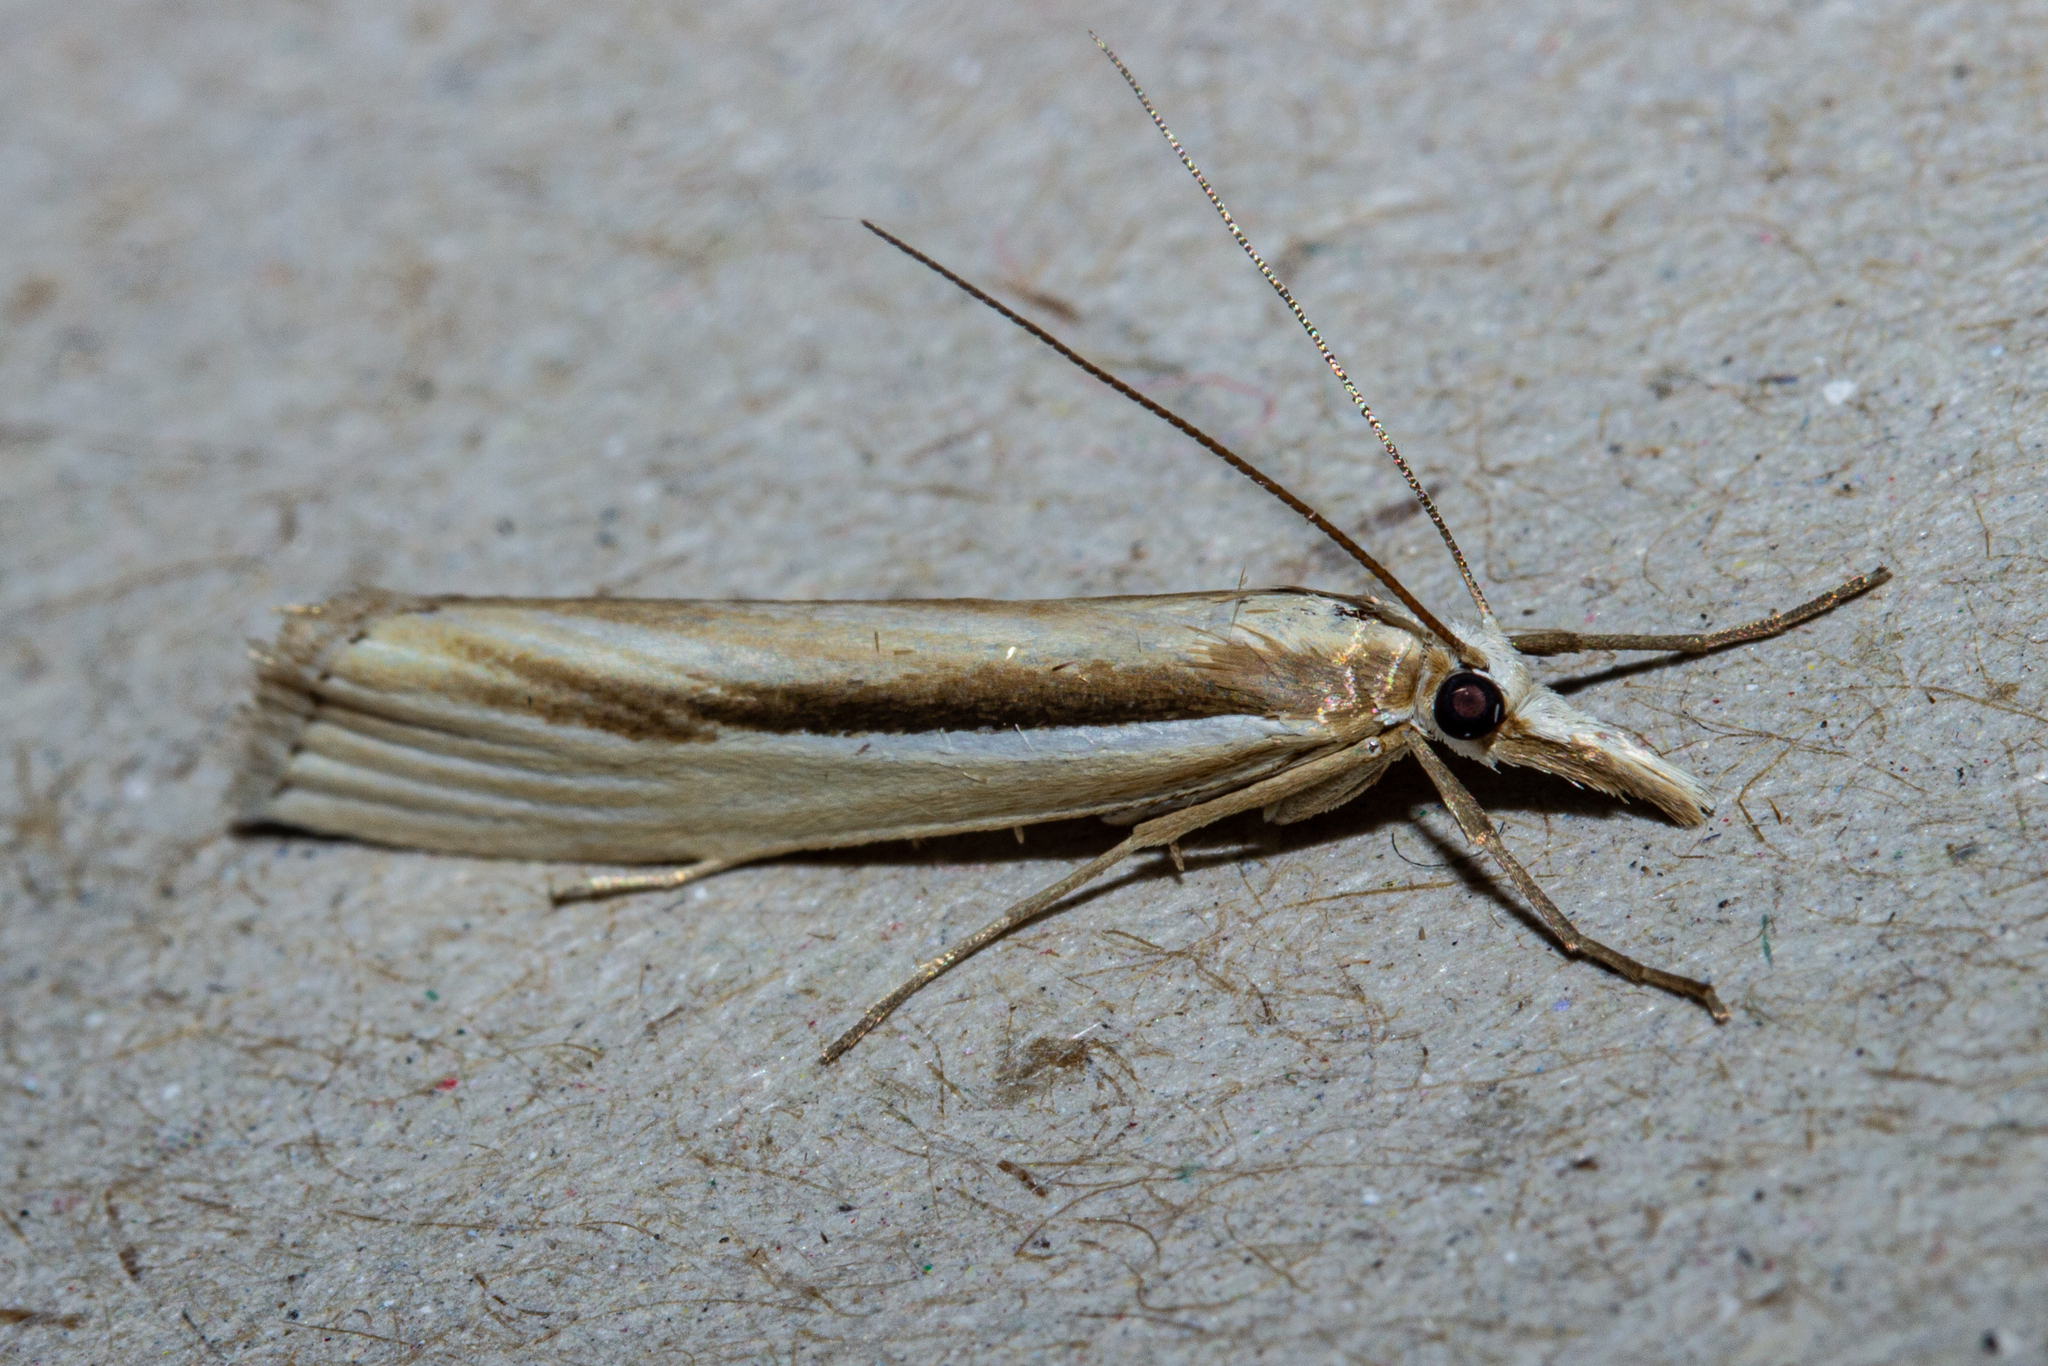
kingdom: Animalia
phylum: Arthropoda
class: Insecta
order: Lepidoptera
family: Crambidae
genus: Orocrambus
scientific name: Orocrambus ramosellus
